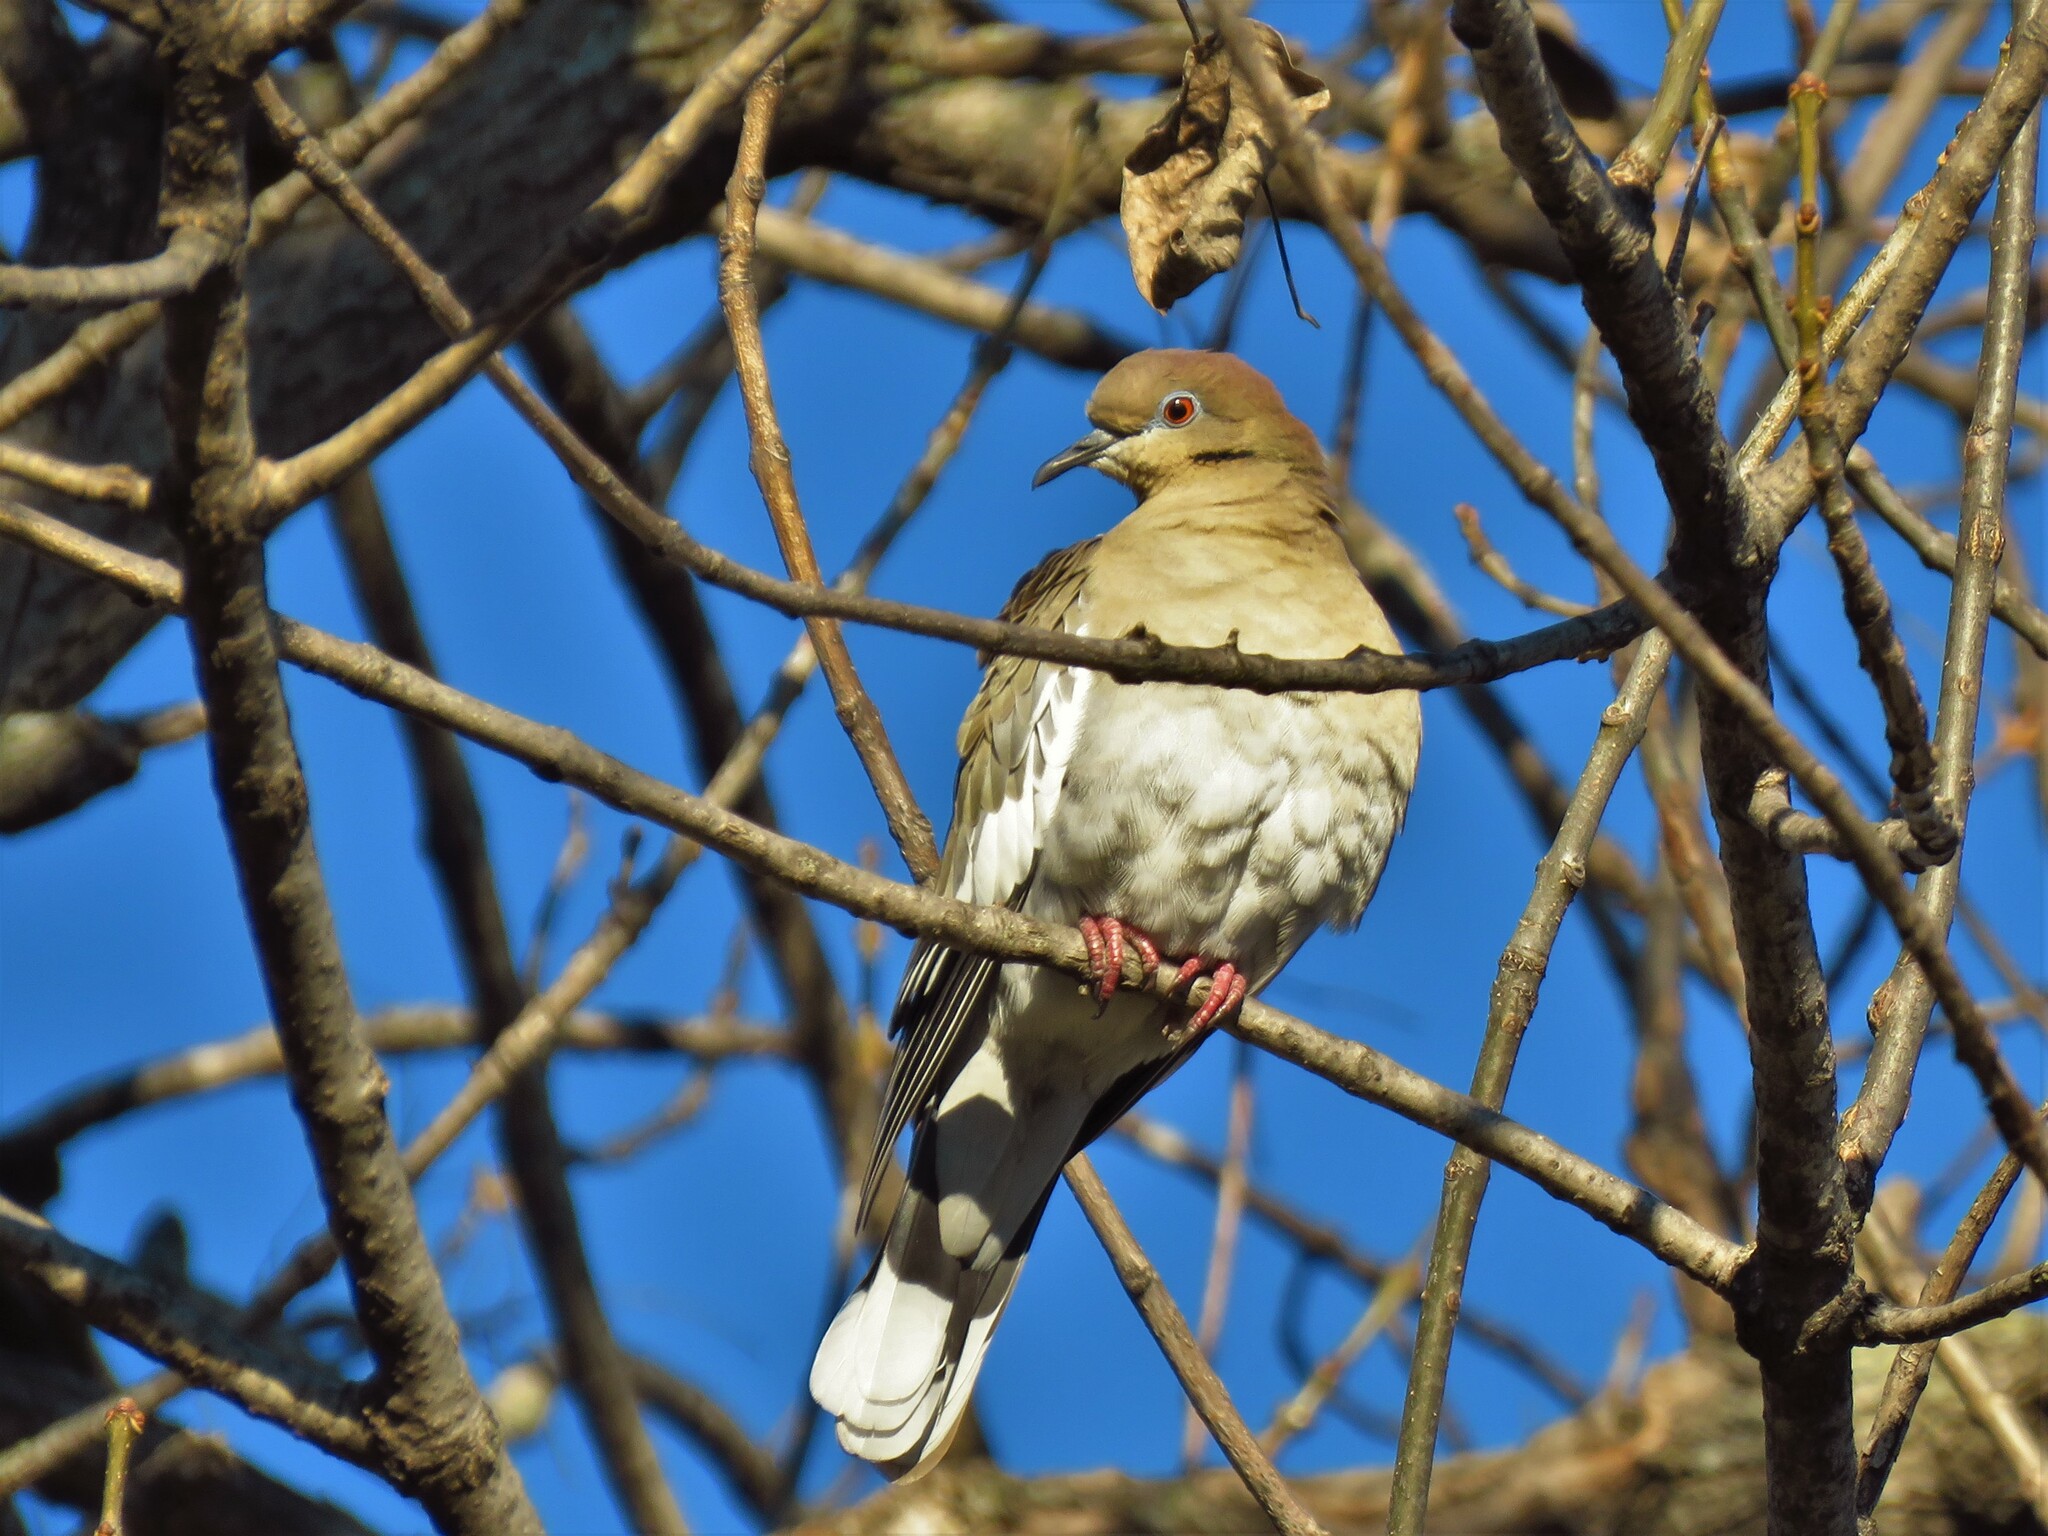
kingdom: Animalia
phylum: Chordata
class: Aves
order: Columbiformes
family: Columbidae
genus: Zenaida
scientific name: Zenaida asiatica
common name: White-winged dove
